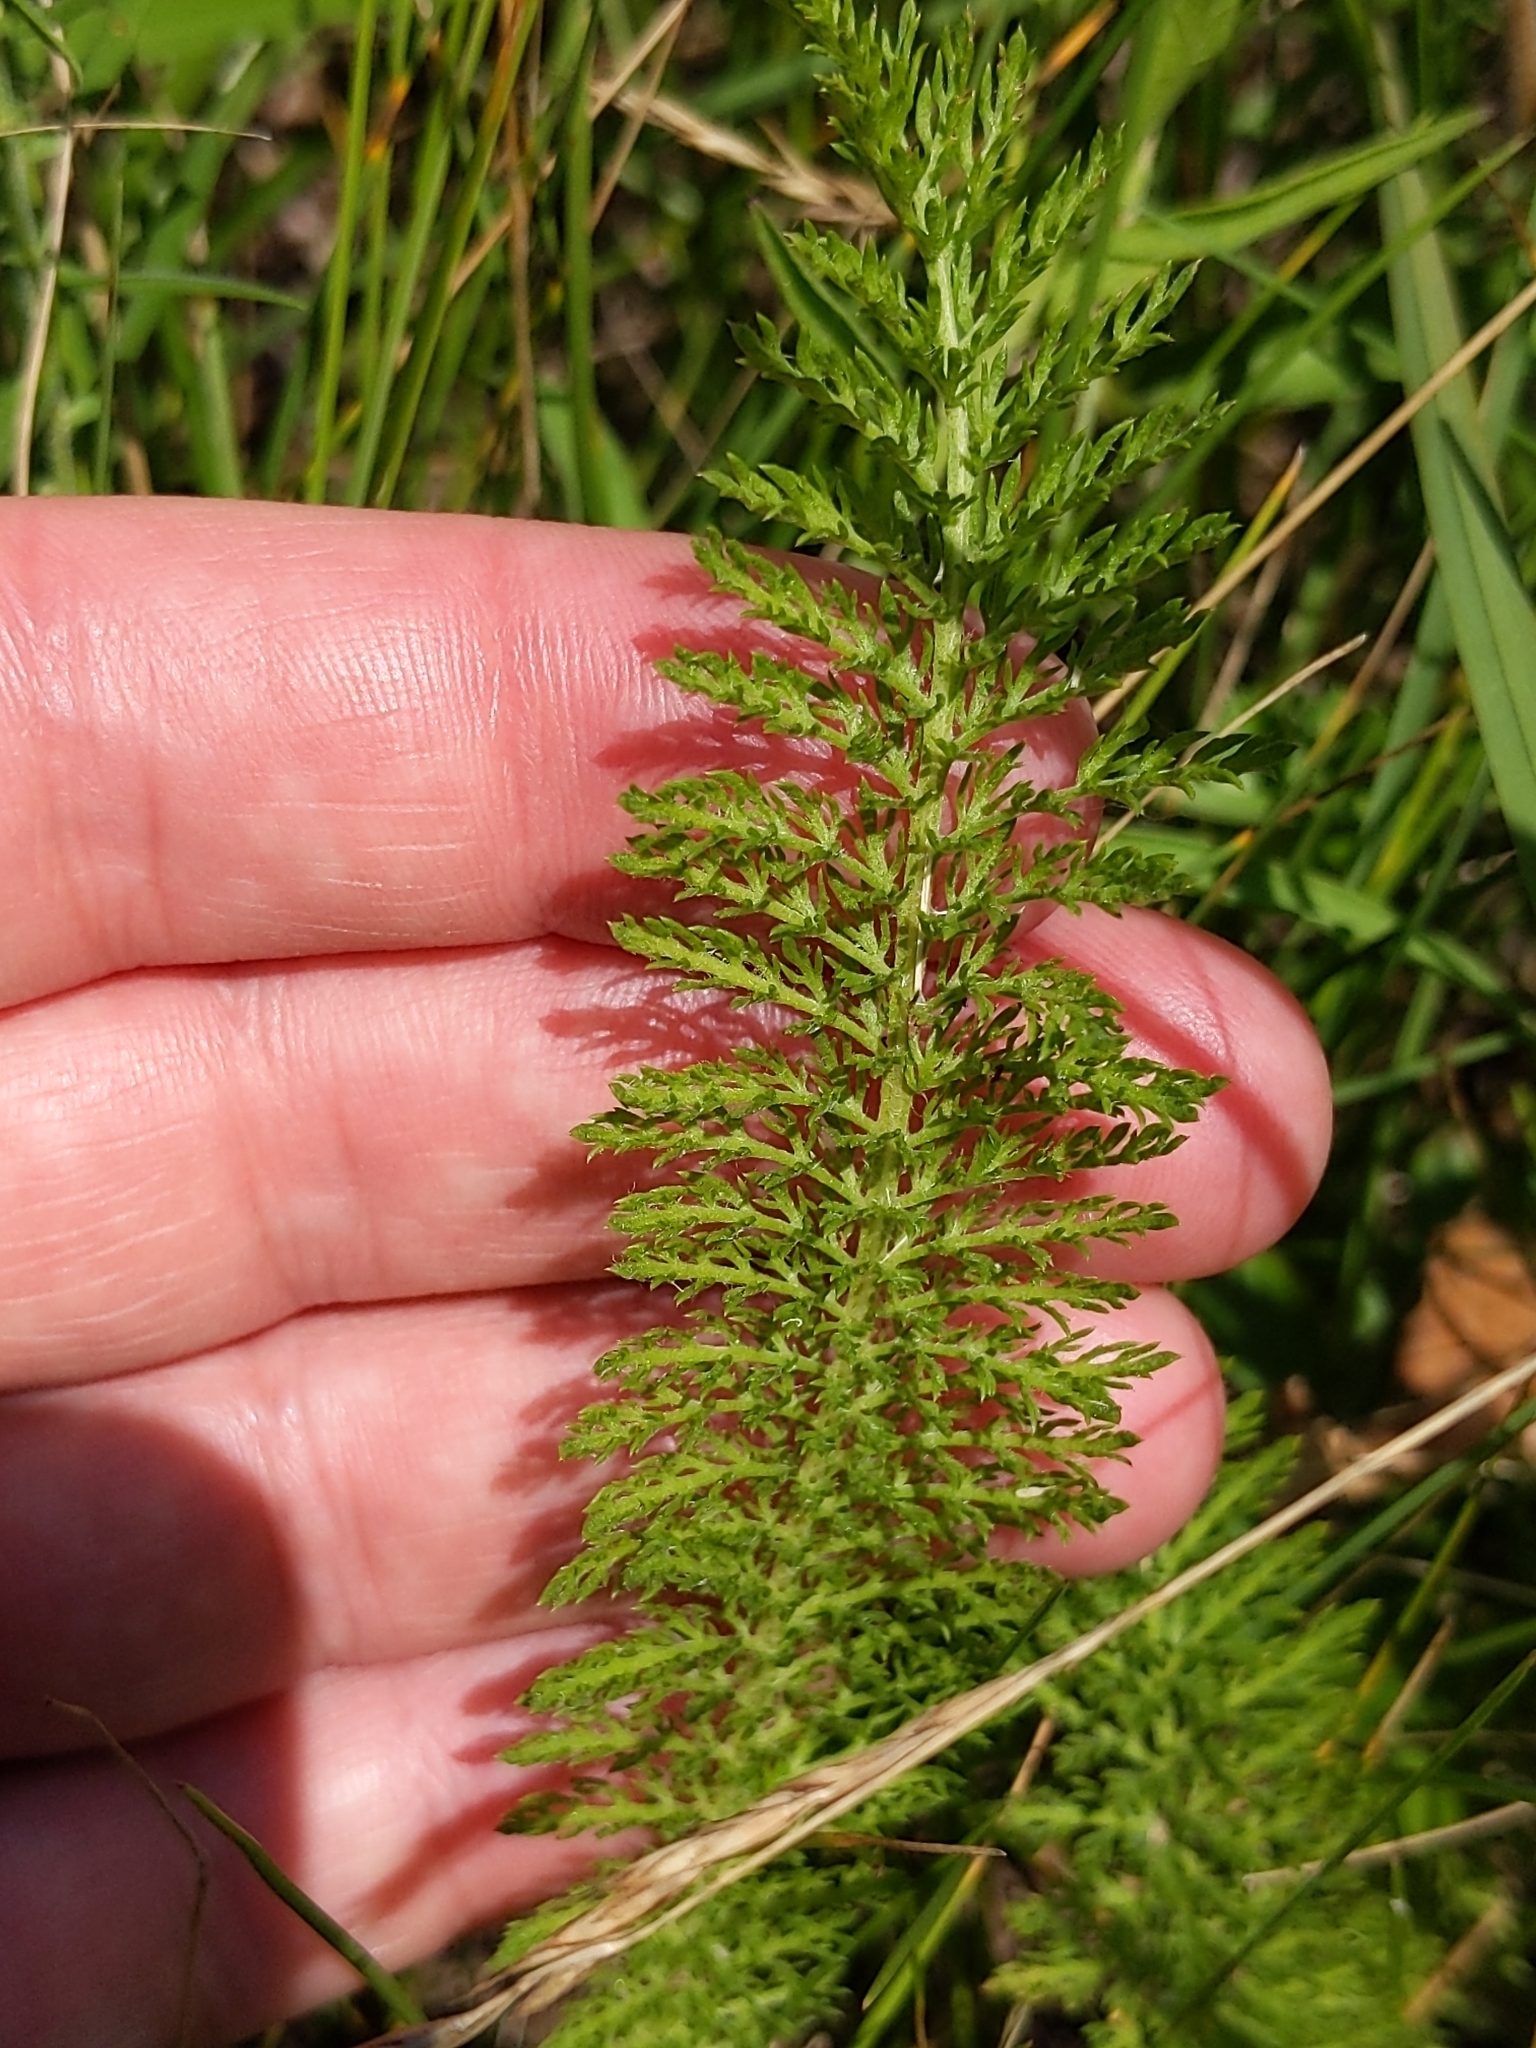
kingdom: Plantae
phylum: Tracheophyta
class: Magnoliopsida
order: Asterales
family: Asteraceae
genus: Achillea
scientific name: Achillea millefolium
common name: Yarrow
